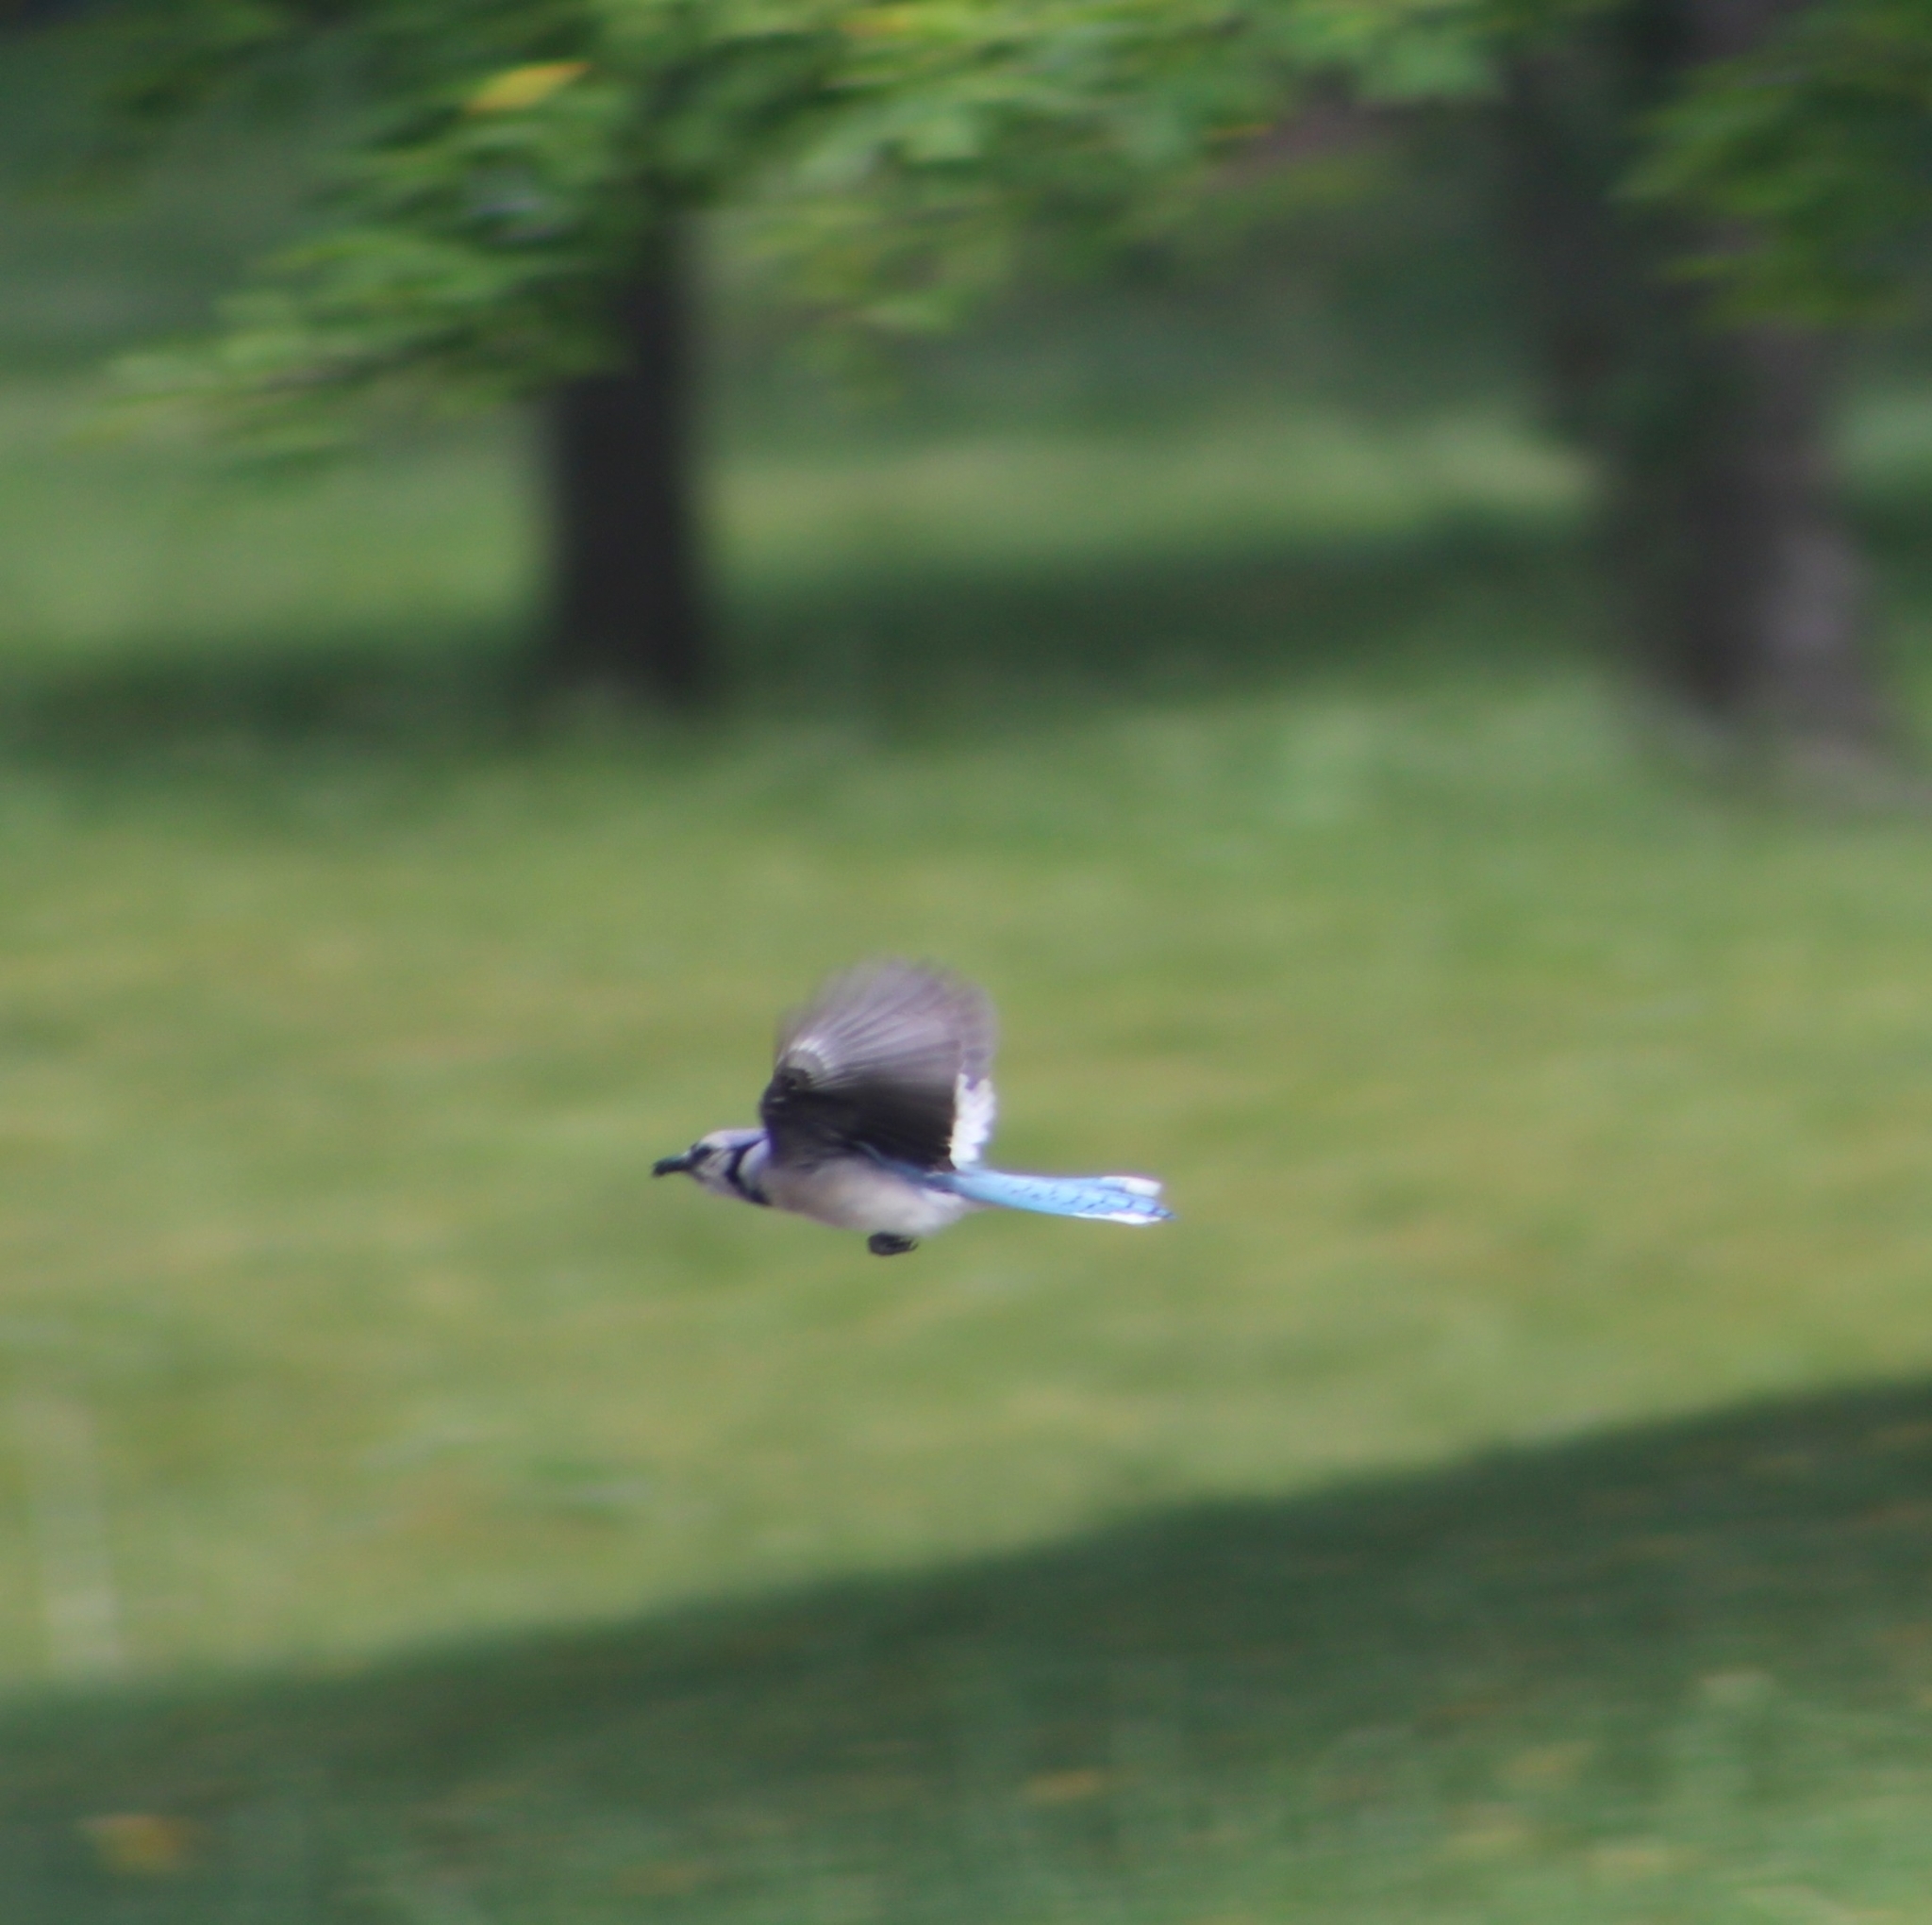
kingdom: Animalia
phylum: Chordata
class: Aves
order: Passeriformes
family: Corvidae
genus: Cyanocitta
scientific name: Cyanocitta cristata
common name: Blue jay
